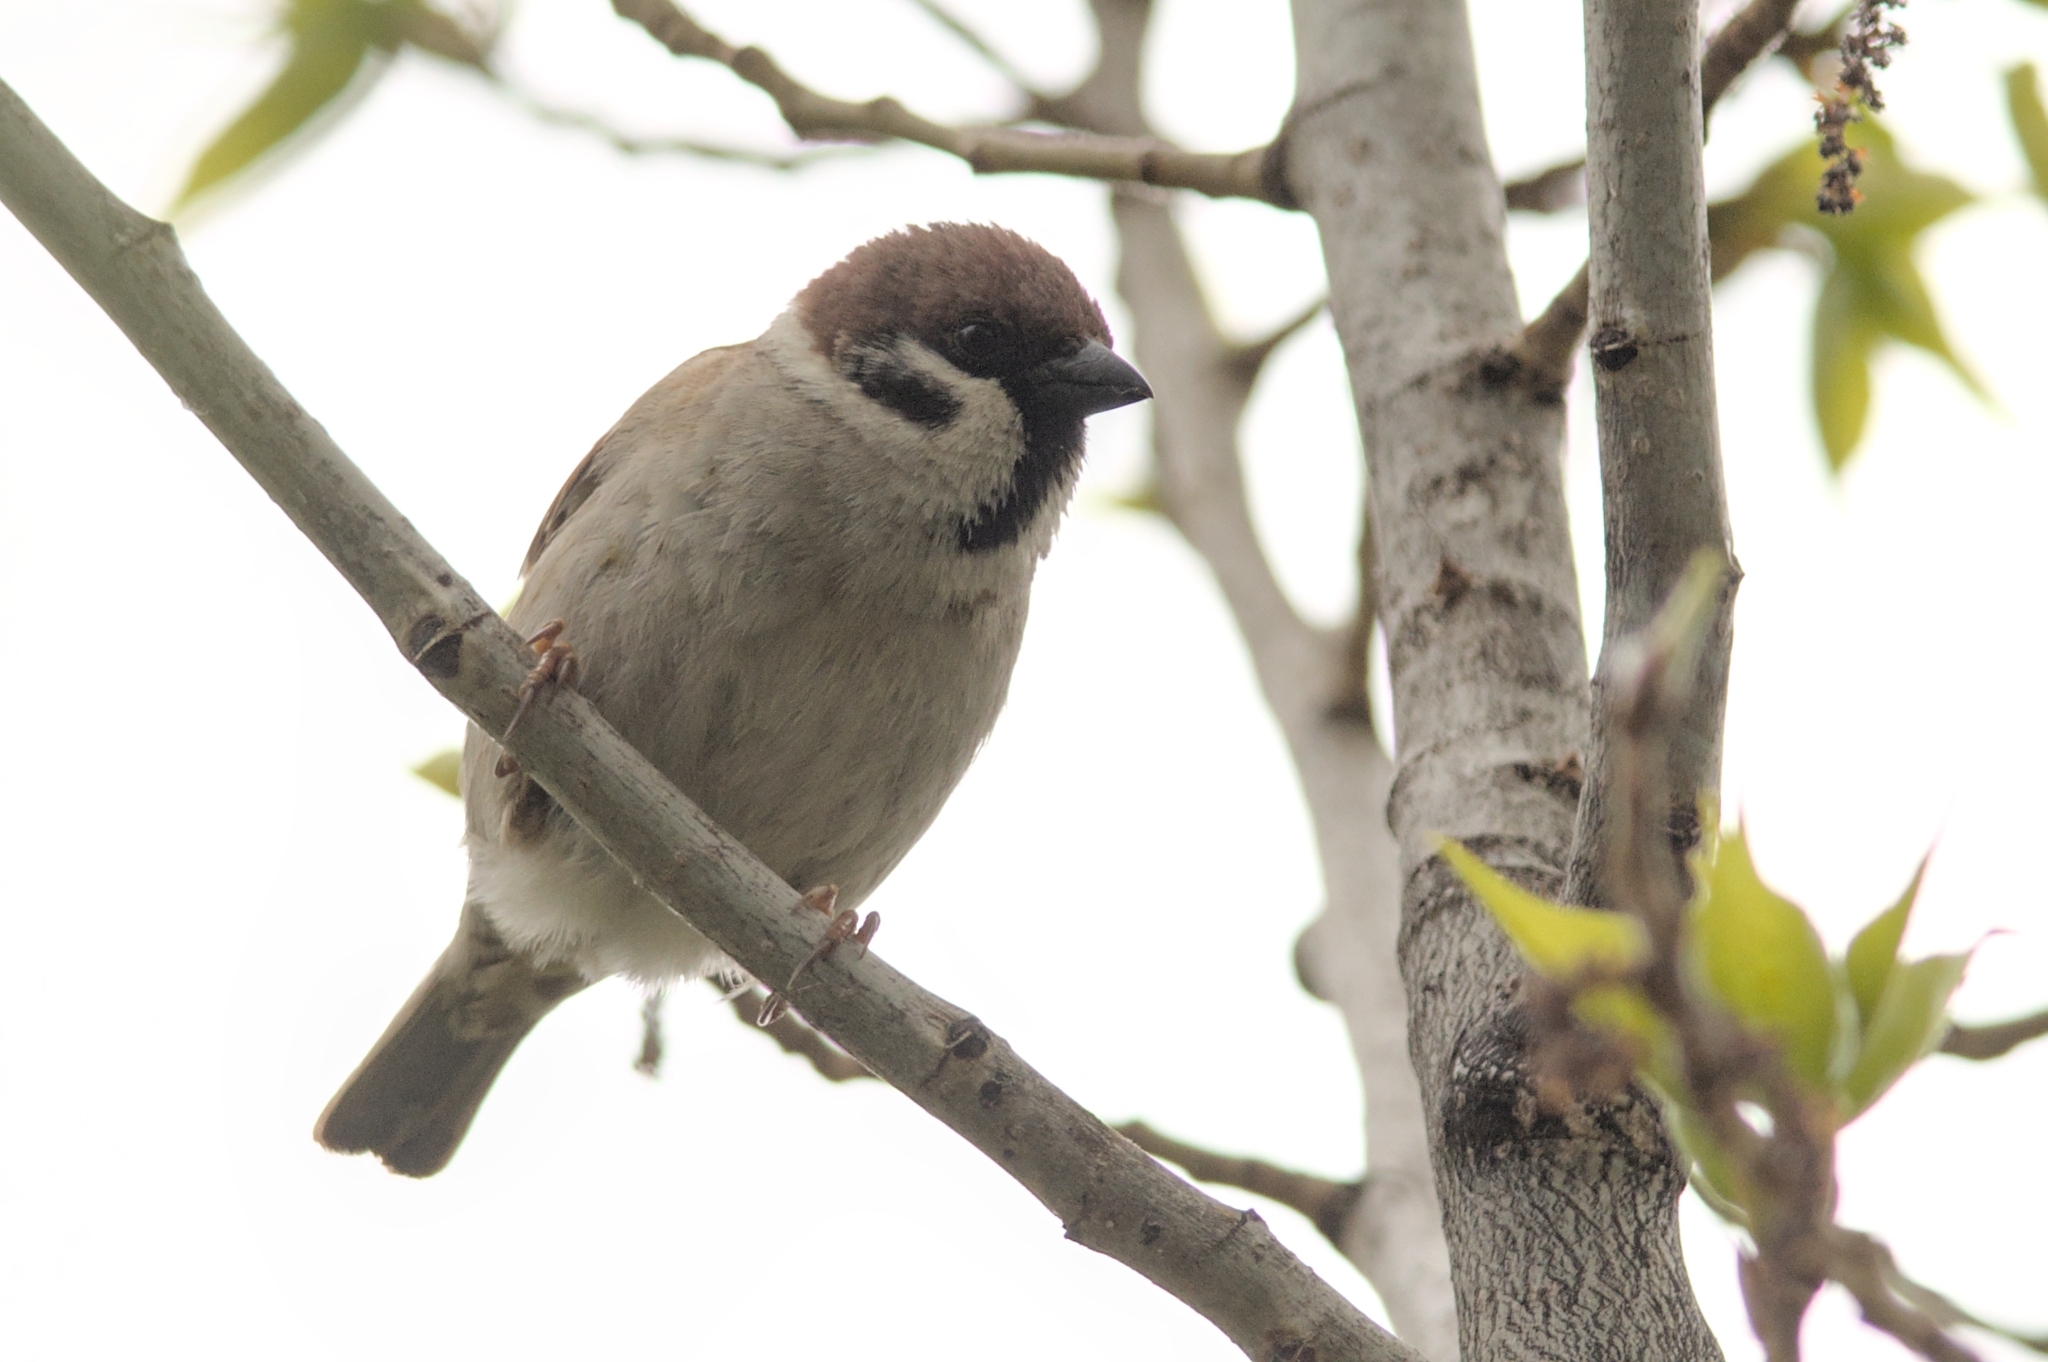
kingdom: Animalia
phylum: Chordata
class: Aves
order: Passeriformes
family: Passeridae
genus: Passer
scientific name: Passer montanus
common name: Eurasian tree sparrow
